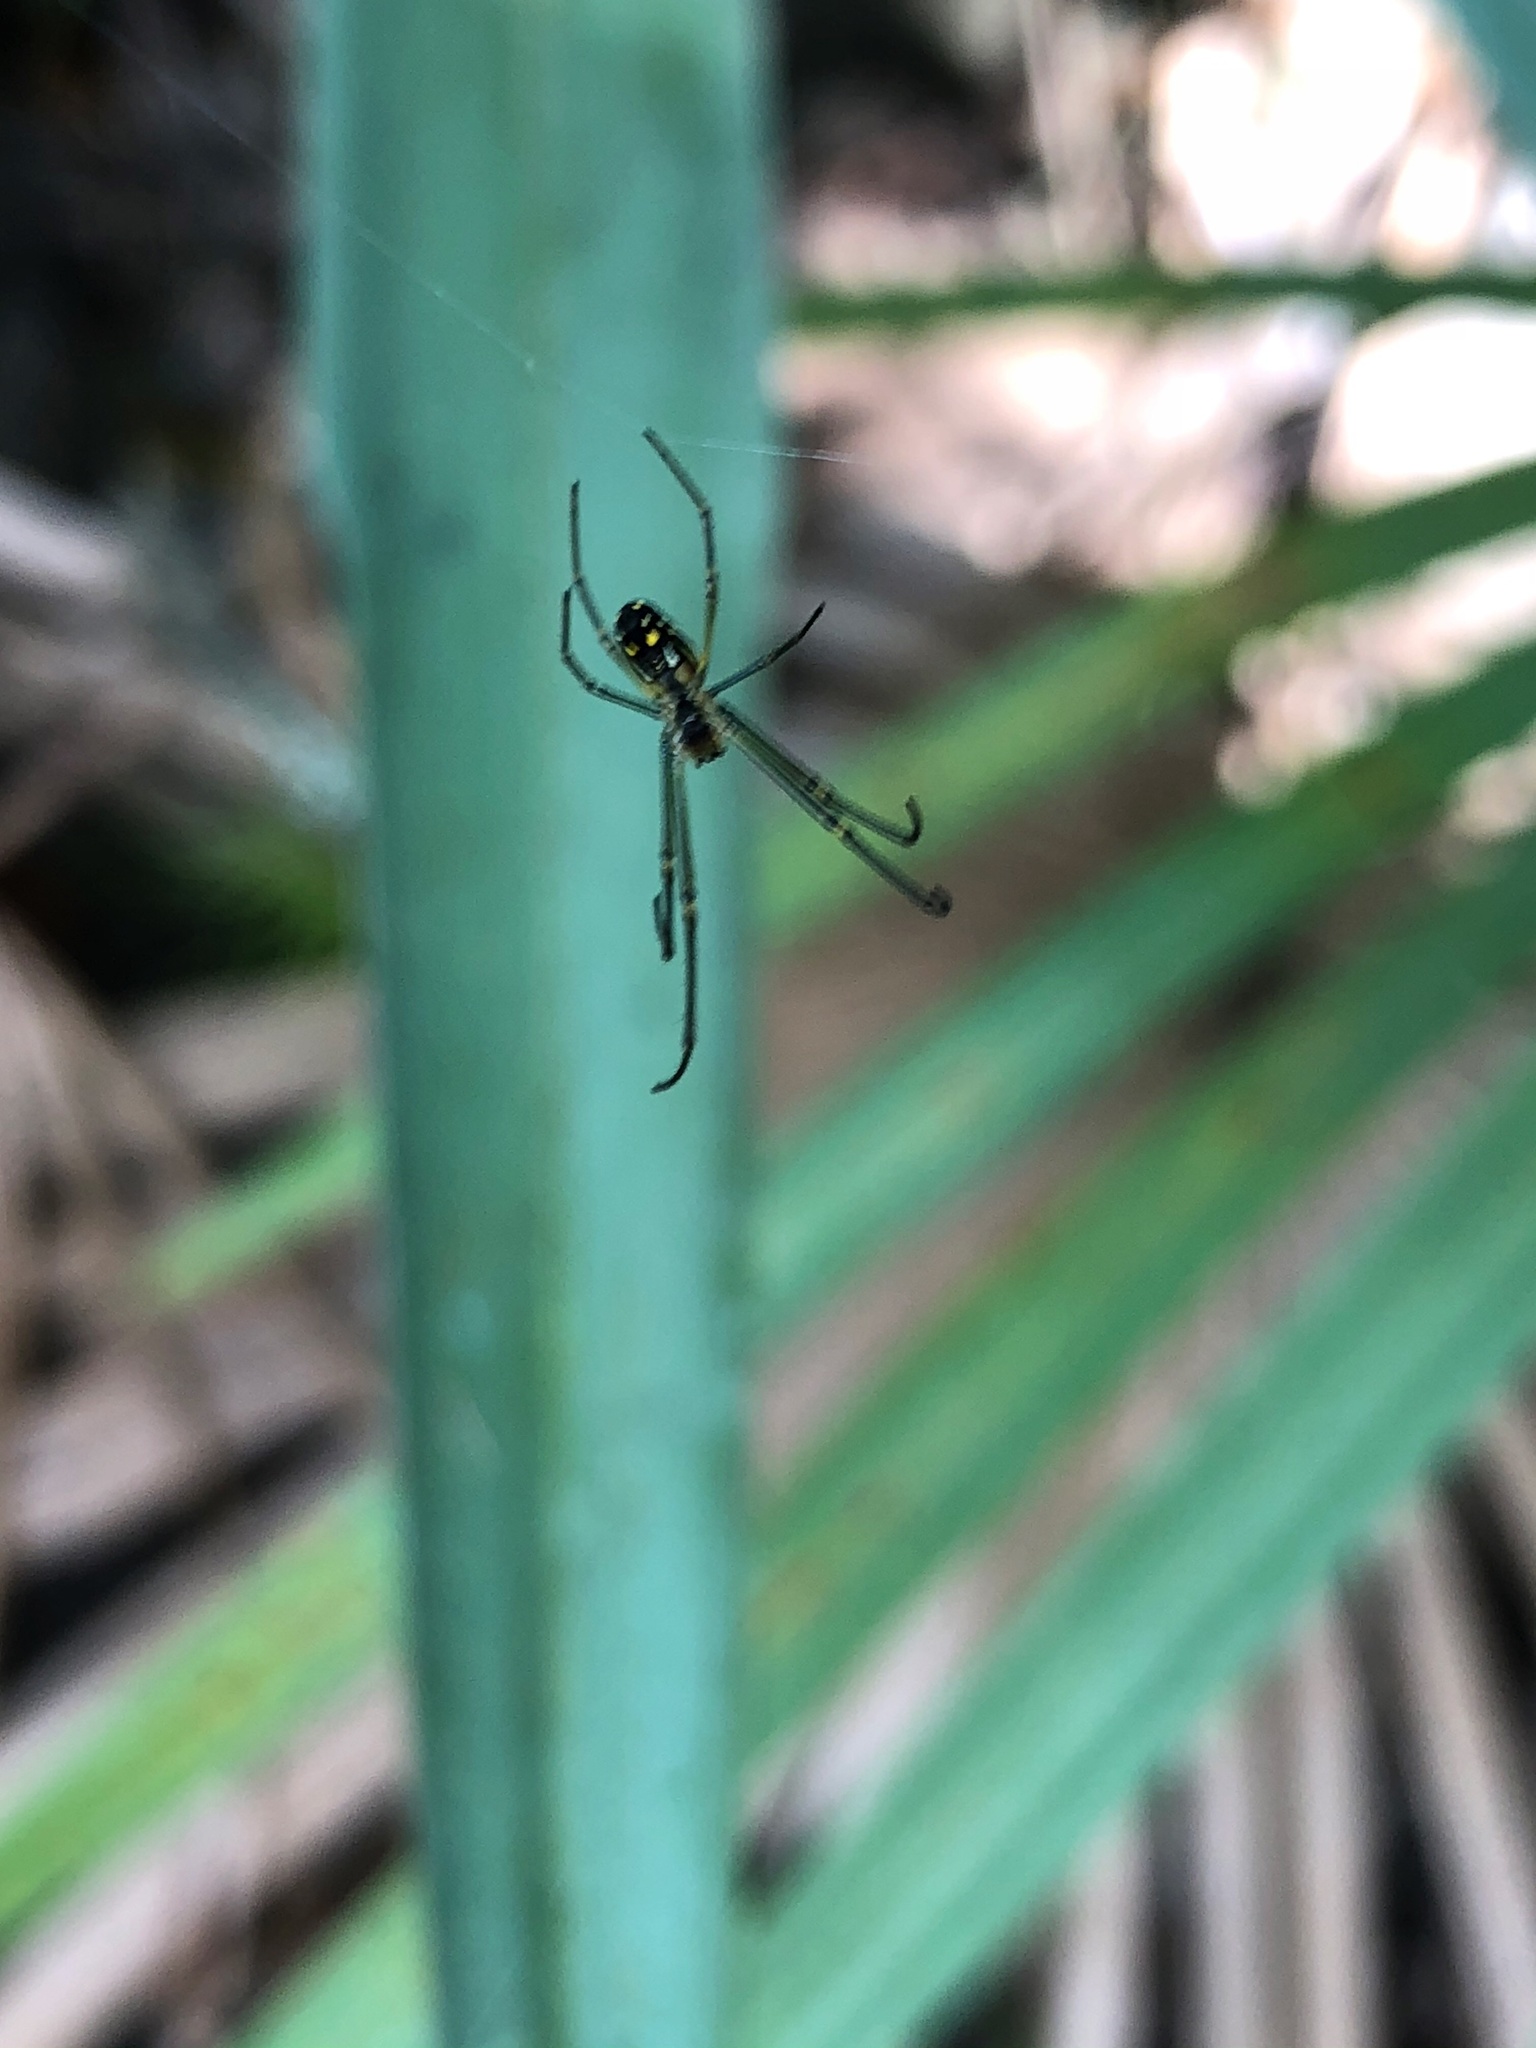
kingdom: Animalia
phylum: Arthropoda
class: Arachnida
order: Araneae
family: Tetragnathidae
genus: Leucauge
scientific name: Leucauge argyra
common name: Longjawed orb weavers
